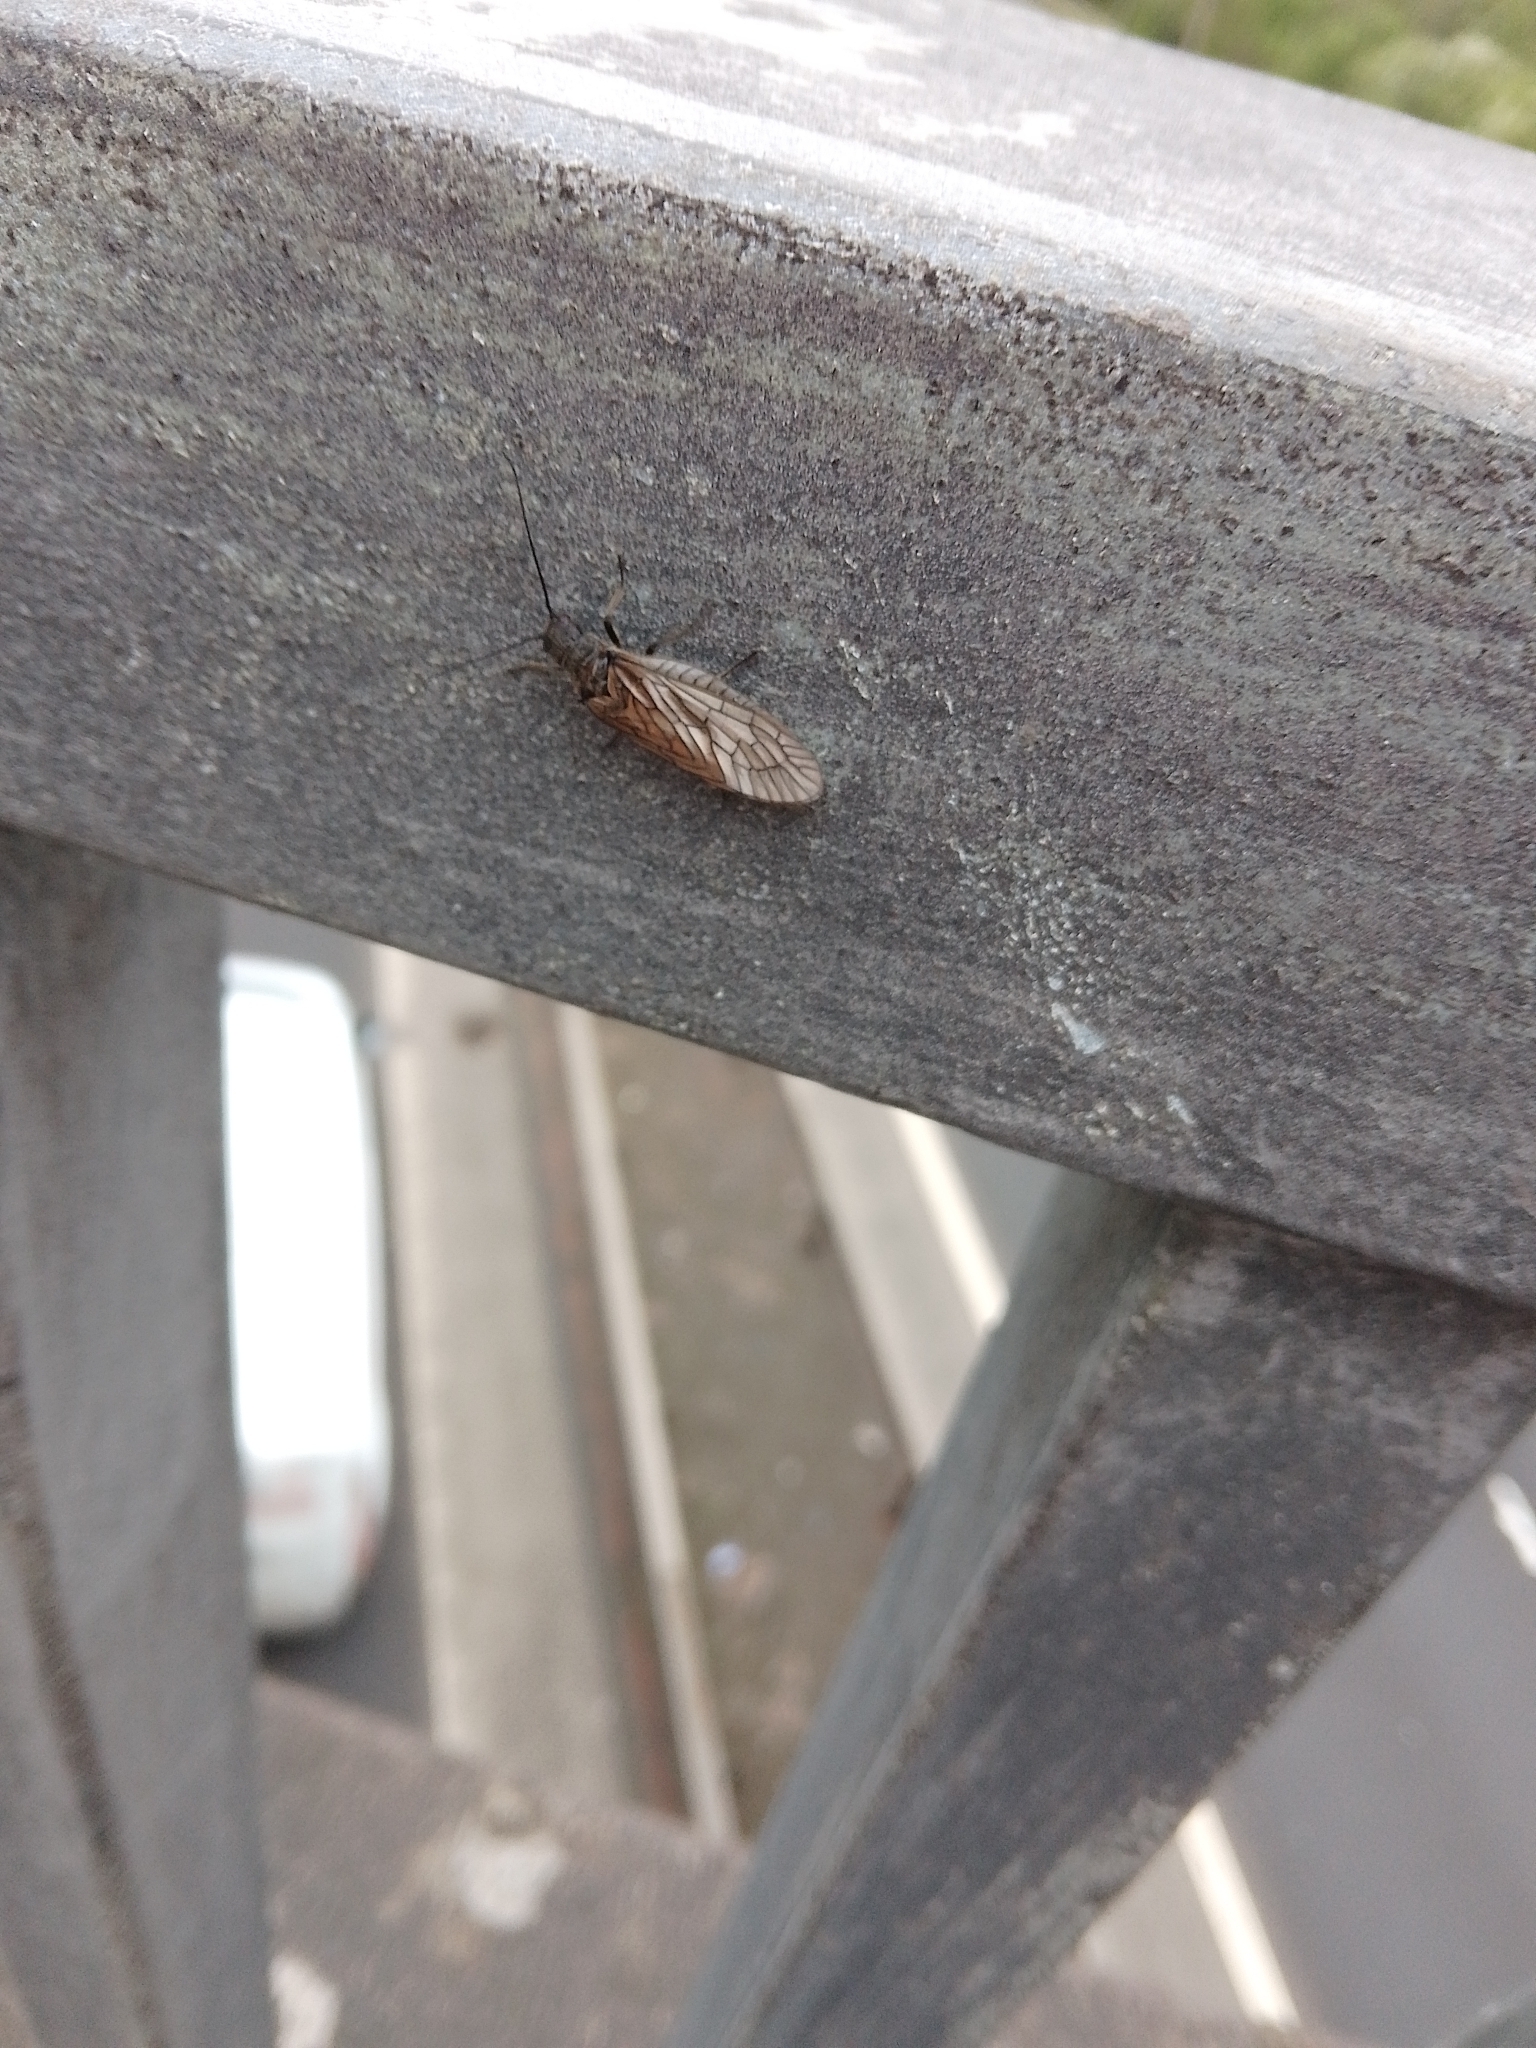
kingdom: Animalia
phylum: Arthropoda
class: Insecta
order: Megaloptera
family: Sialidae
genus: Sialis
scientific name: Sialis
